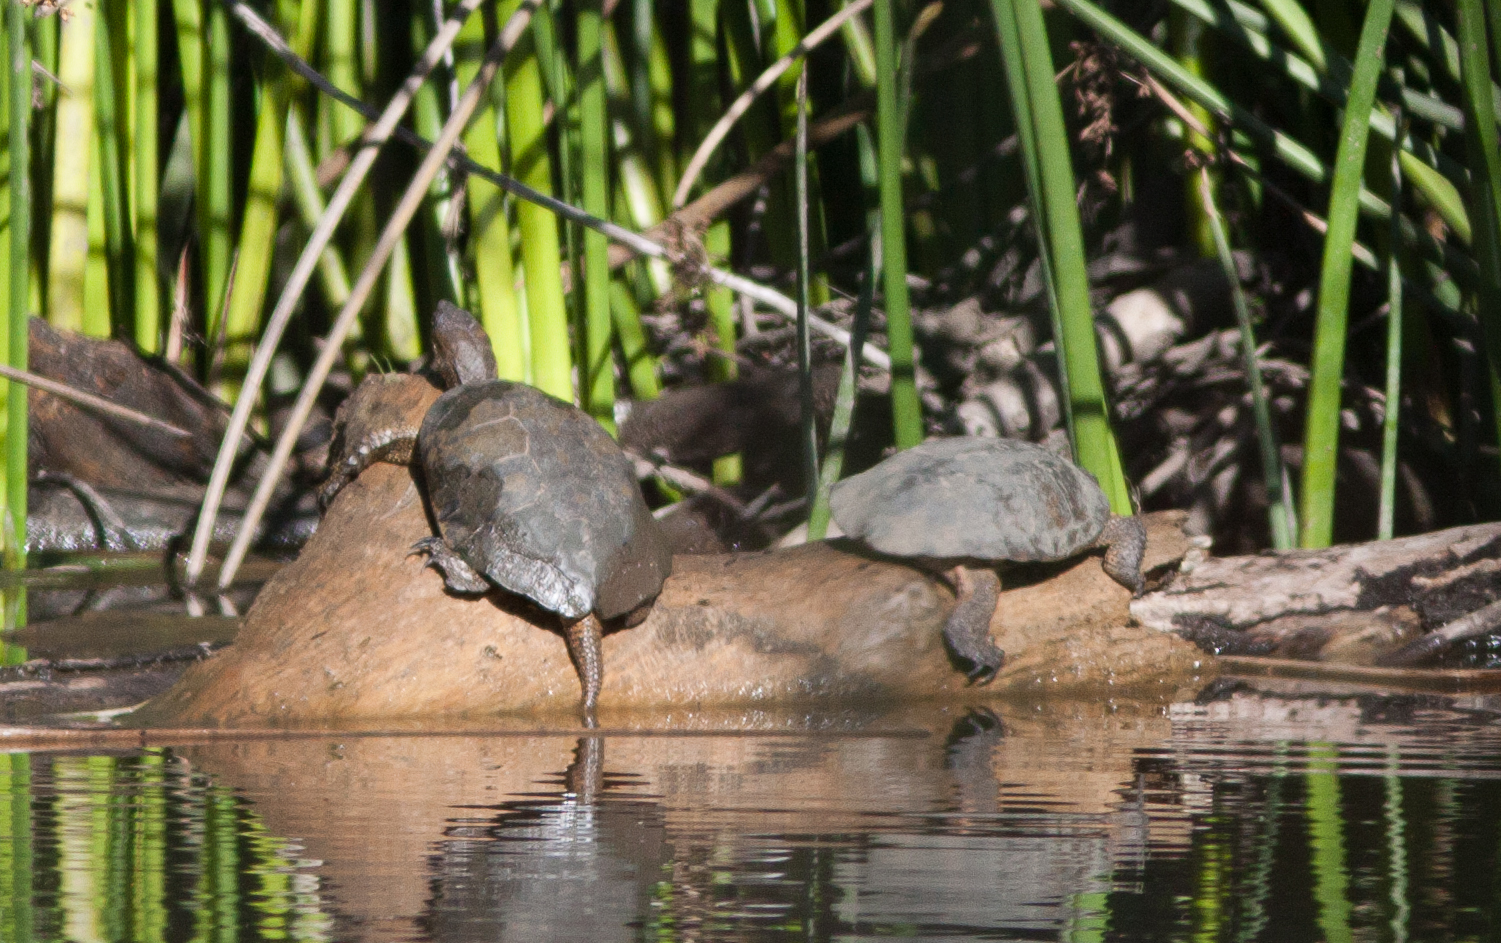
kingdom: Animalia
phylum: Chordata
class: Testudines
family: Emydidae
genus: Actinemys
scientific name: Actinemys marmorata
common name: Western pond turtle
